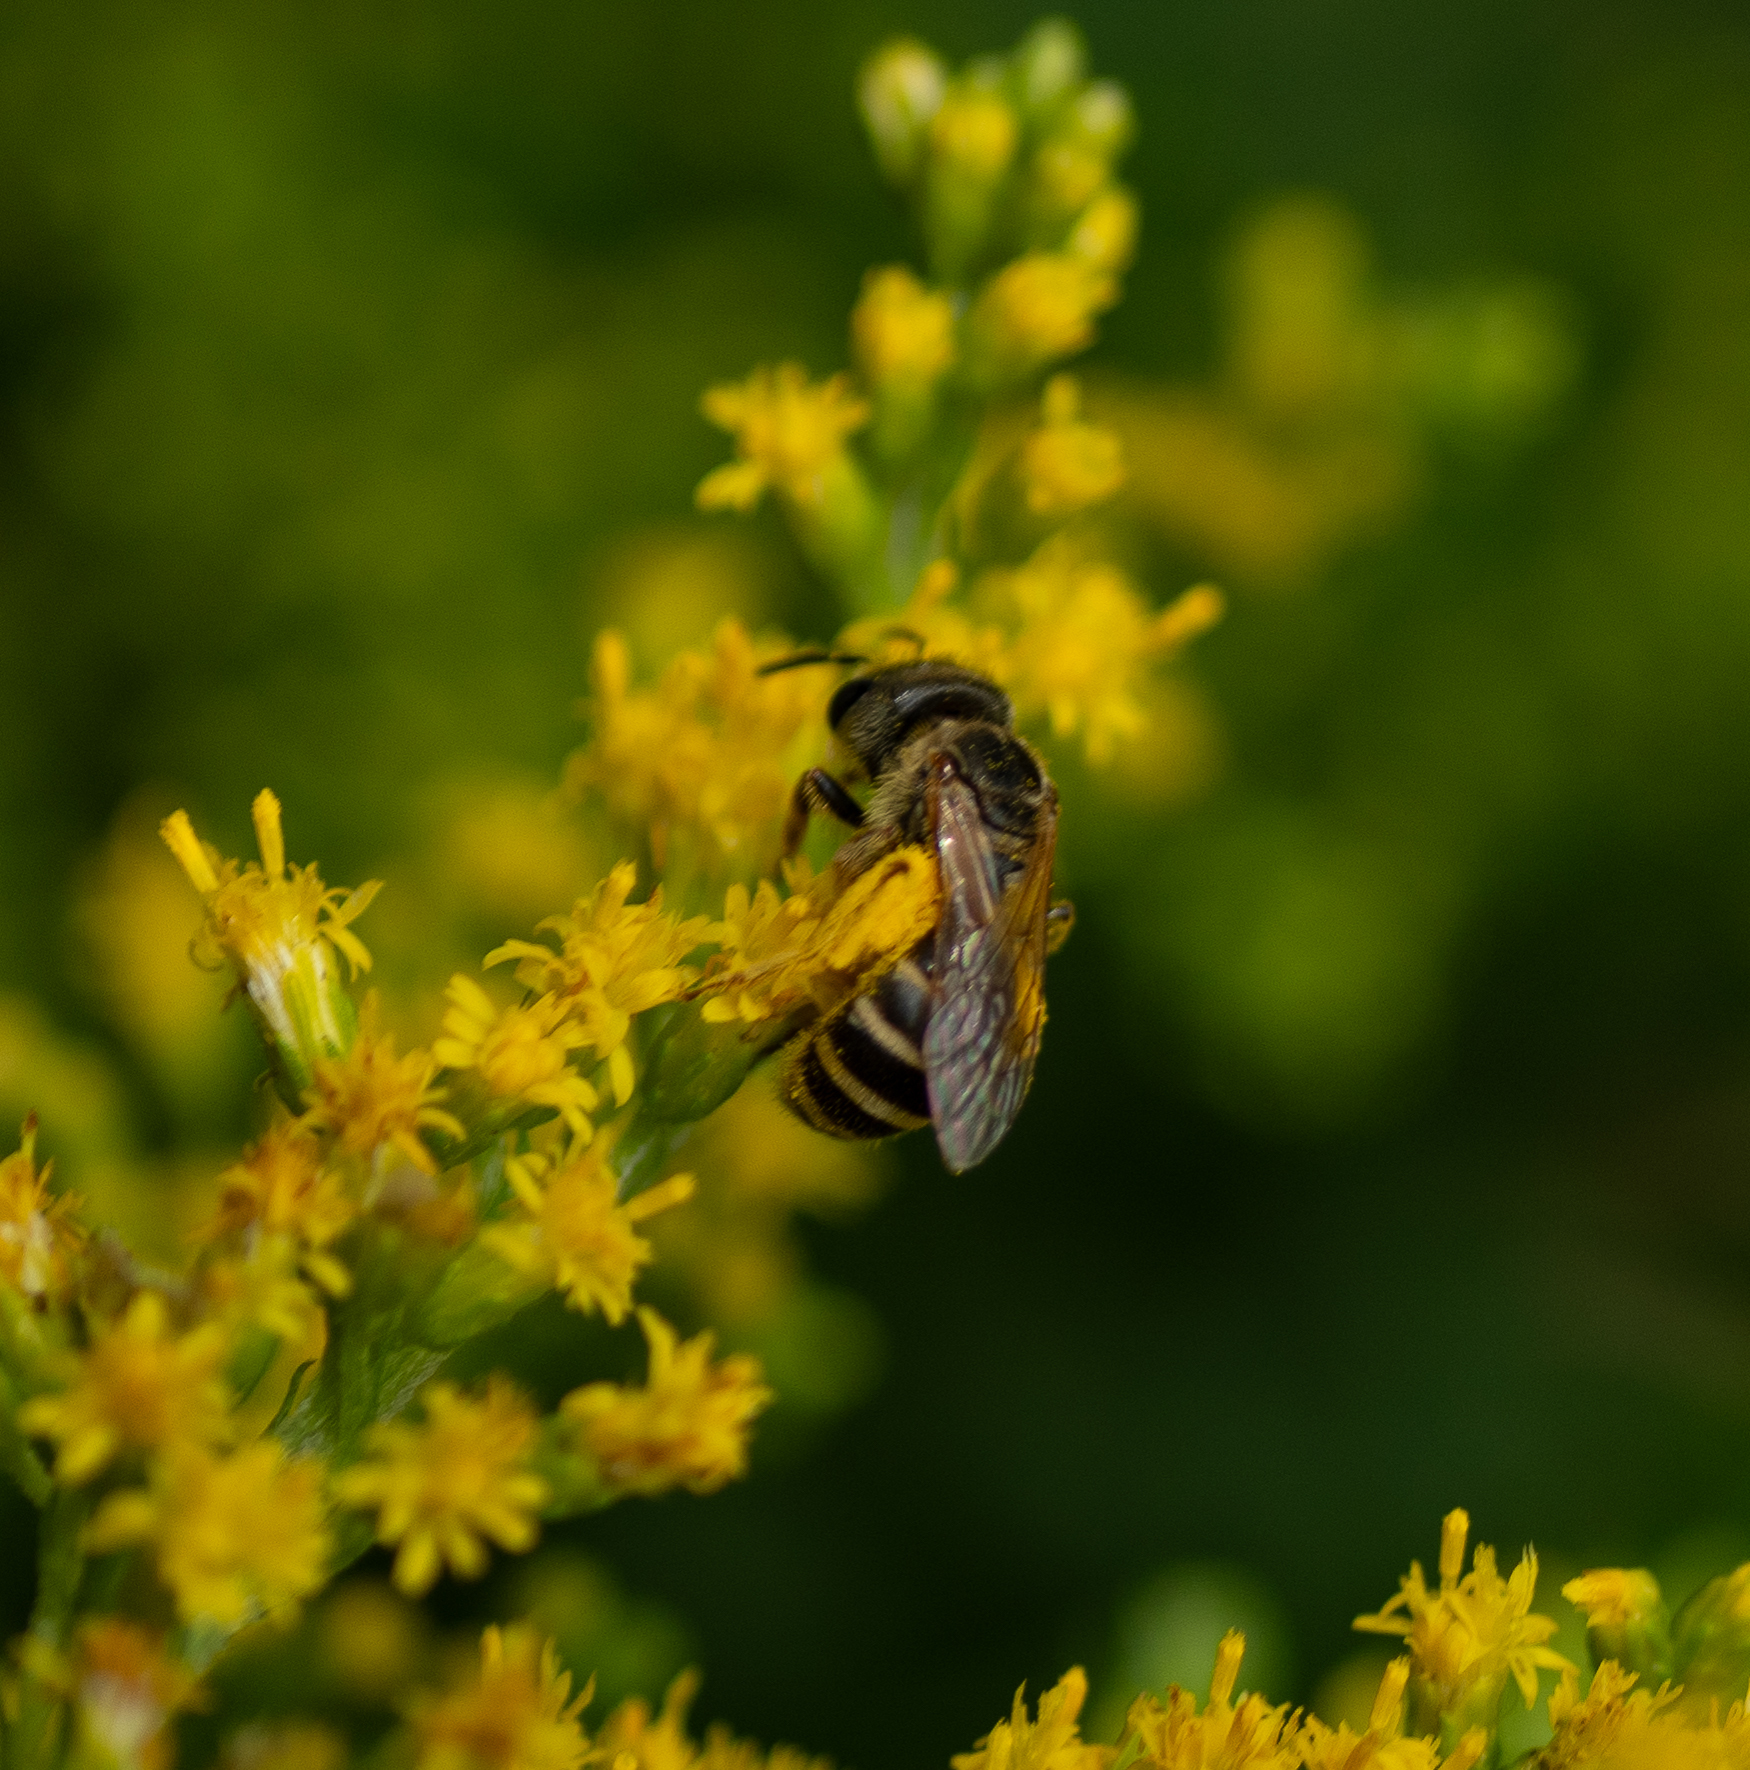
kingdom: Animalia
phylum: Arthropoda
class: Insecta
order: Hymenoptera
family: Halictidae
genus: Halictus
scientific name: Halictus ligatus
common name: Ligated furrow bee
